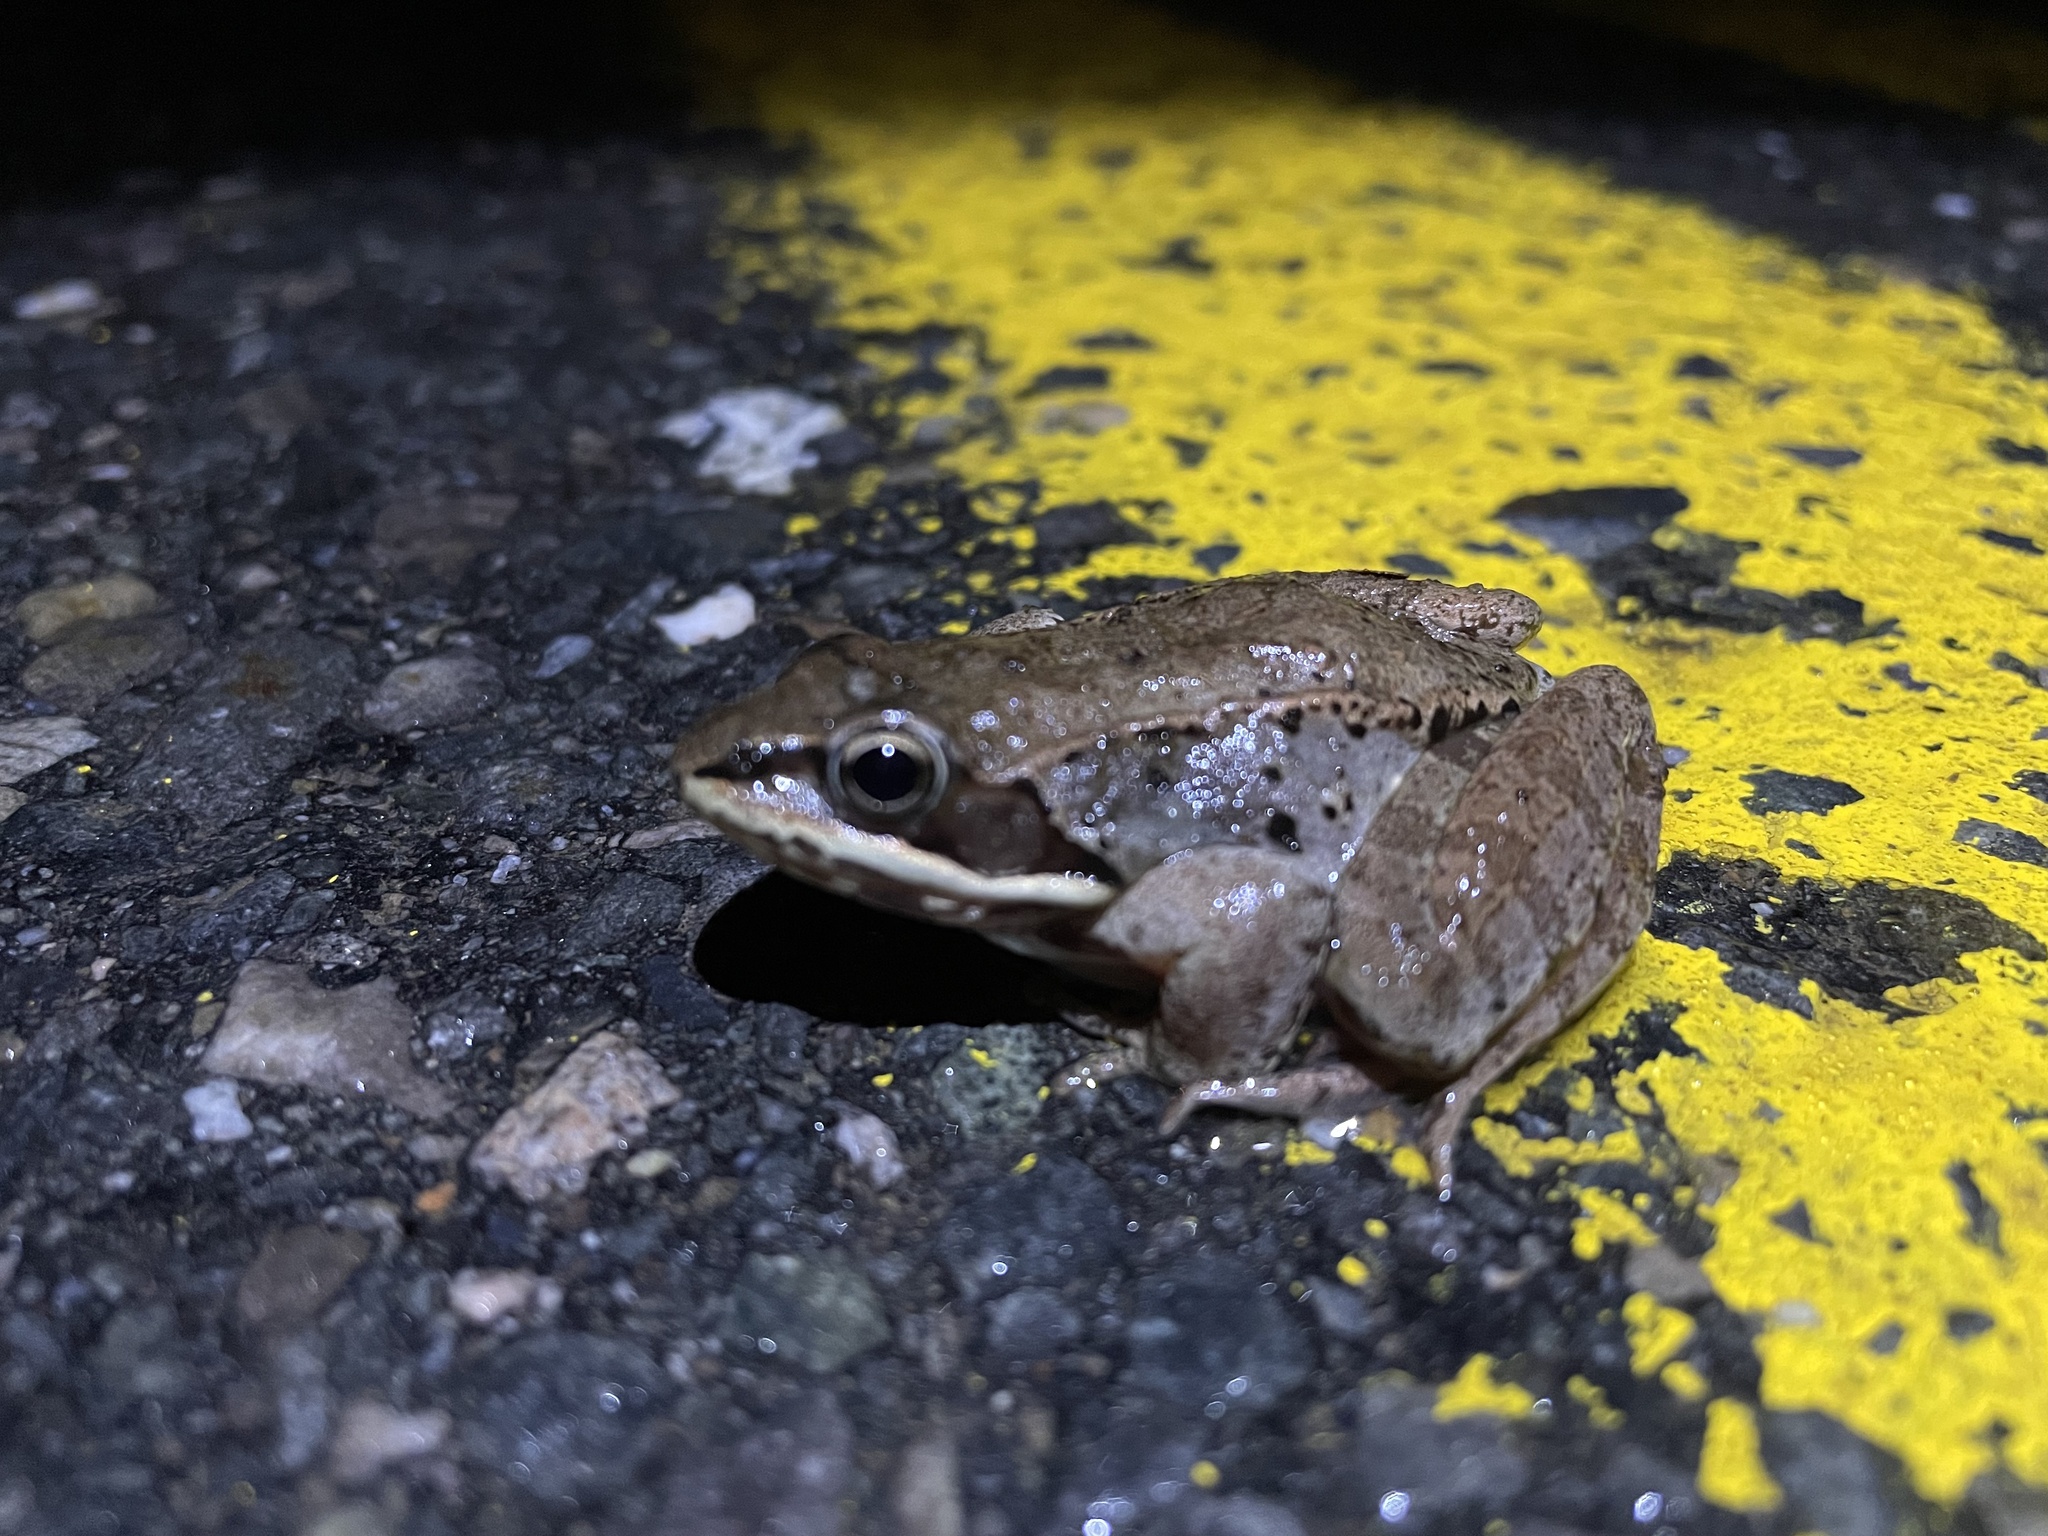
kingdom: Animalia
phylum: Chordata
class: Amphibia
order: Anura
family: Ranidae
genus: Lithobates
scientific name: Lithobates sylvaticus
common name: Wood frog
